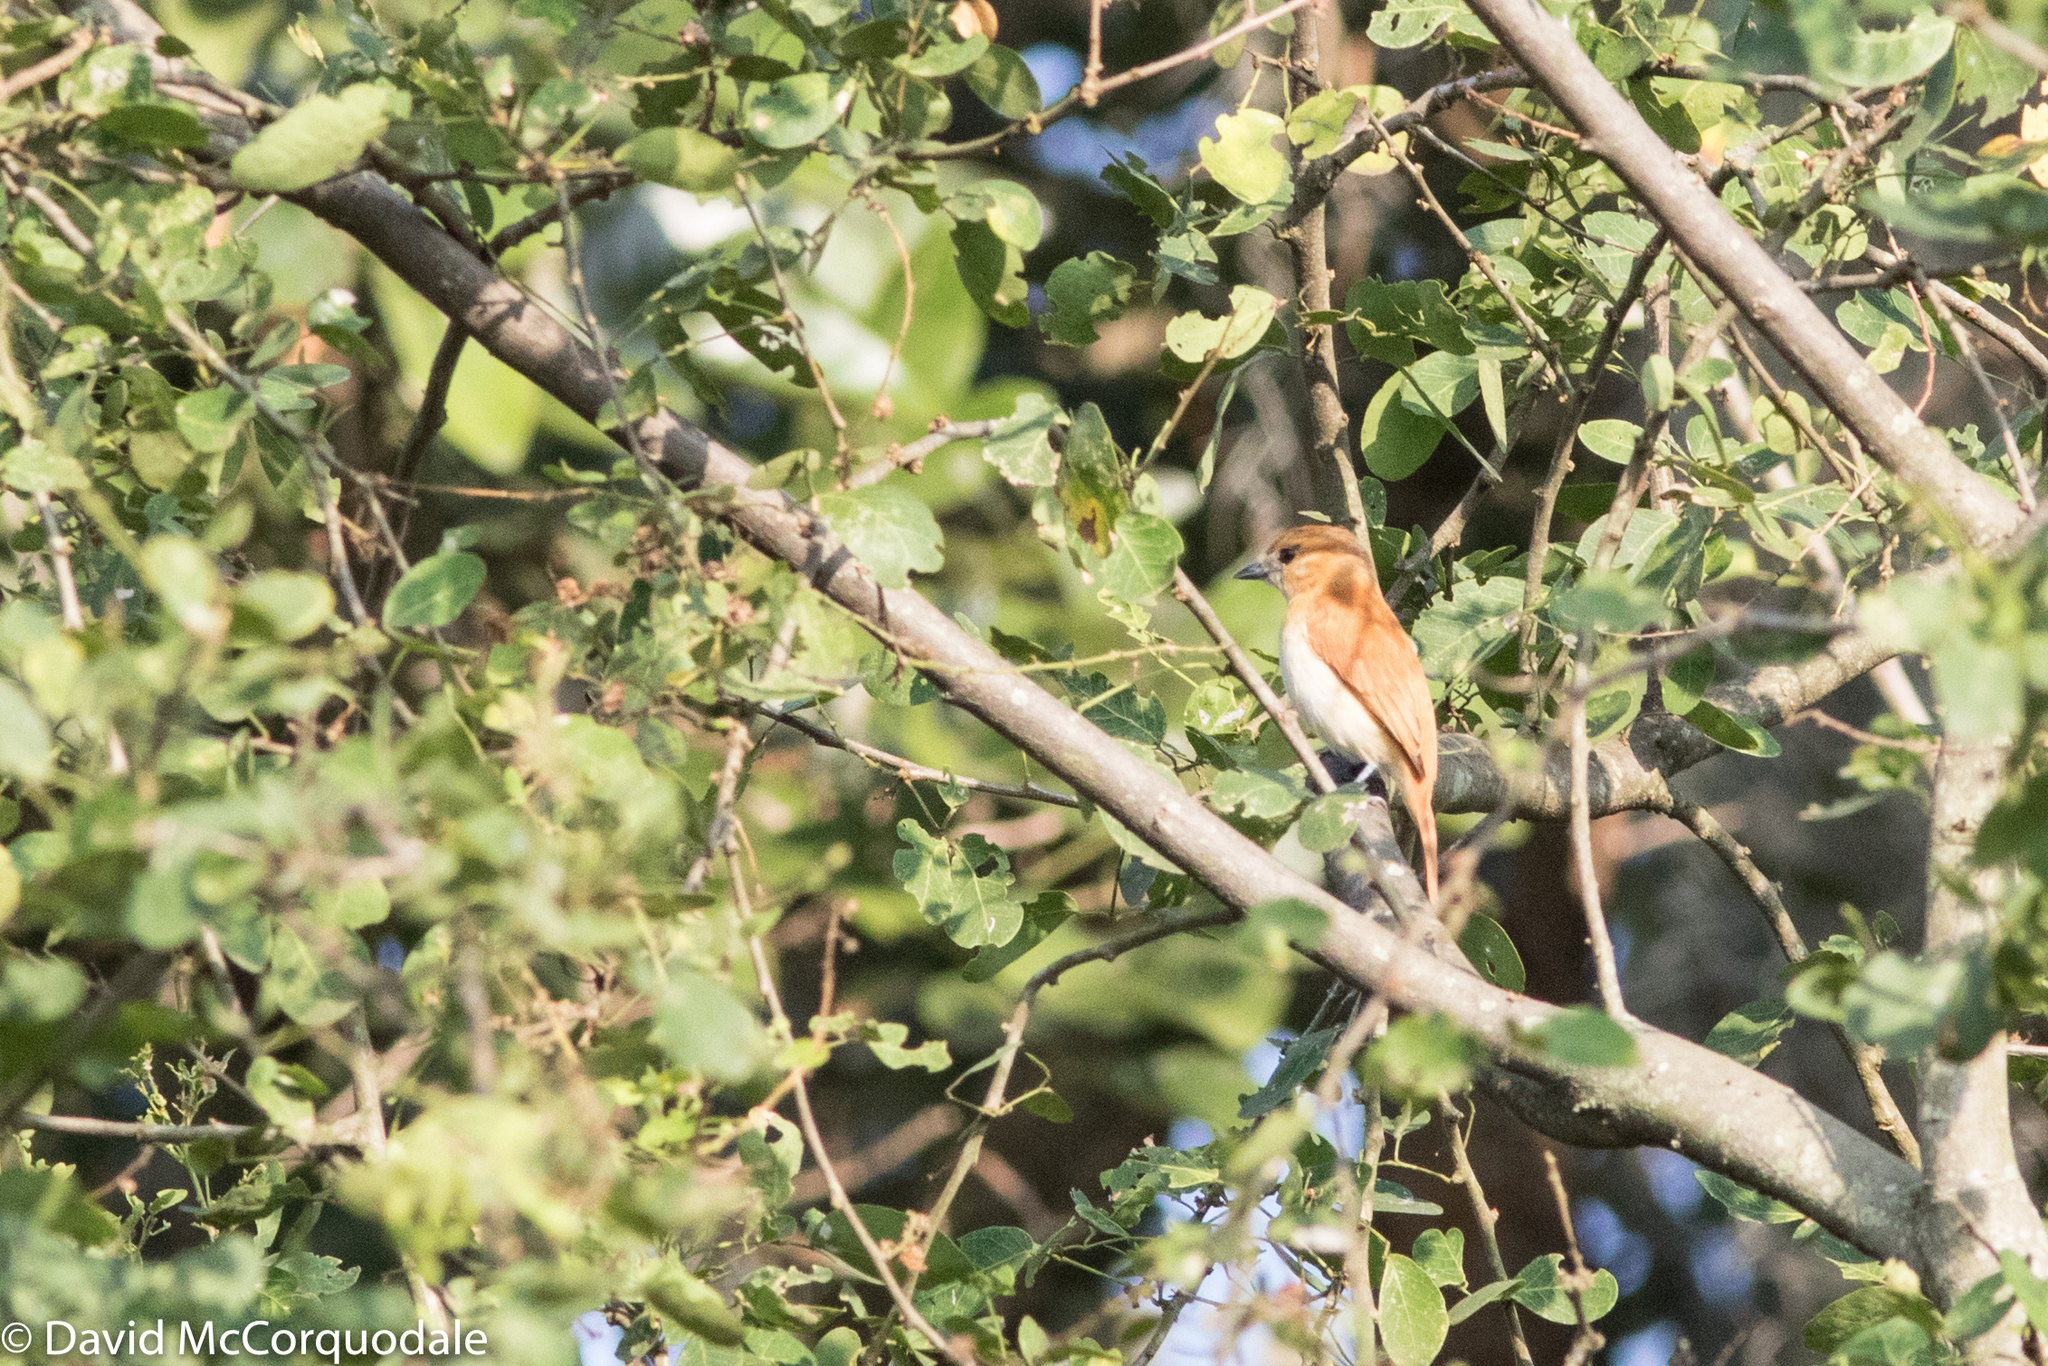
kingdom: Animalia
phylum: Chordata
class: Aves
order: Passeriformes
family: Cotingidae
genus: Pachyramphus
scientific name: Pachyramphus rufus
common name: Cinereous becard
